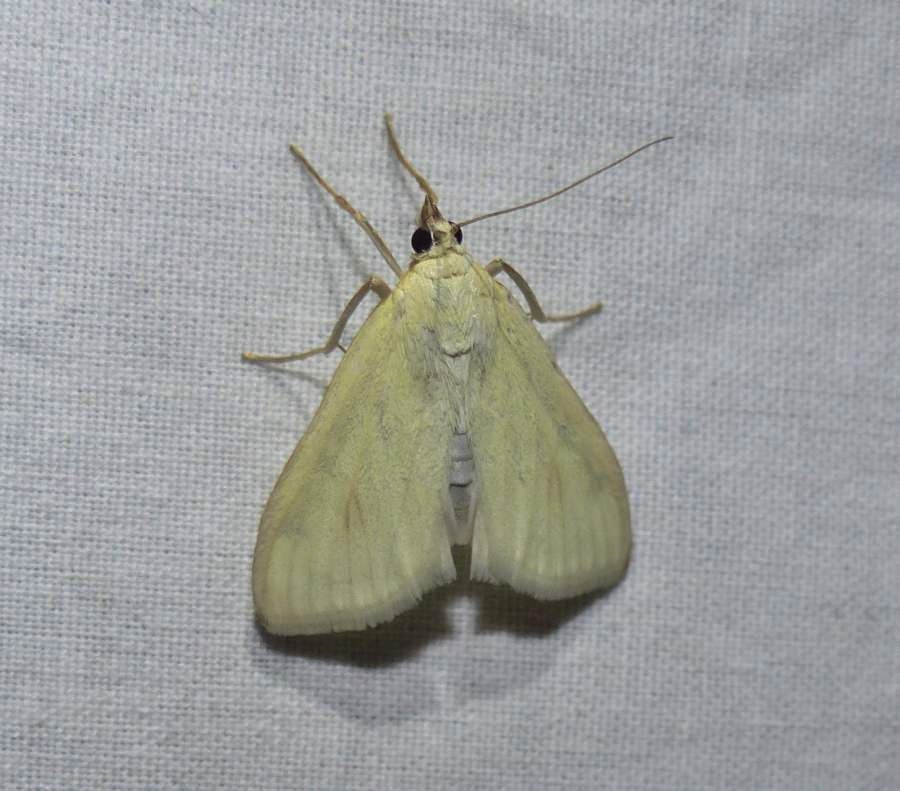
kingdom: Animalia
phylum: Arthropoda
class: Insecta
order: Lepidoptera
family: Crambidae
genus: Sitochroa
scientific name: Sitochroa palealis
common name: Greenish-yellow sitochroa moth
